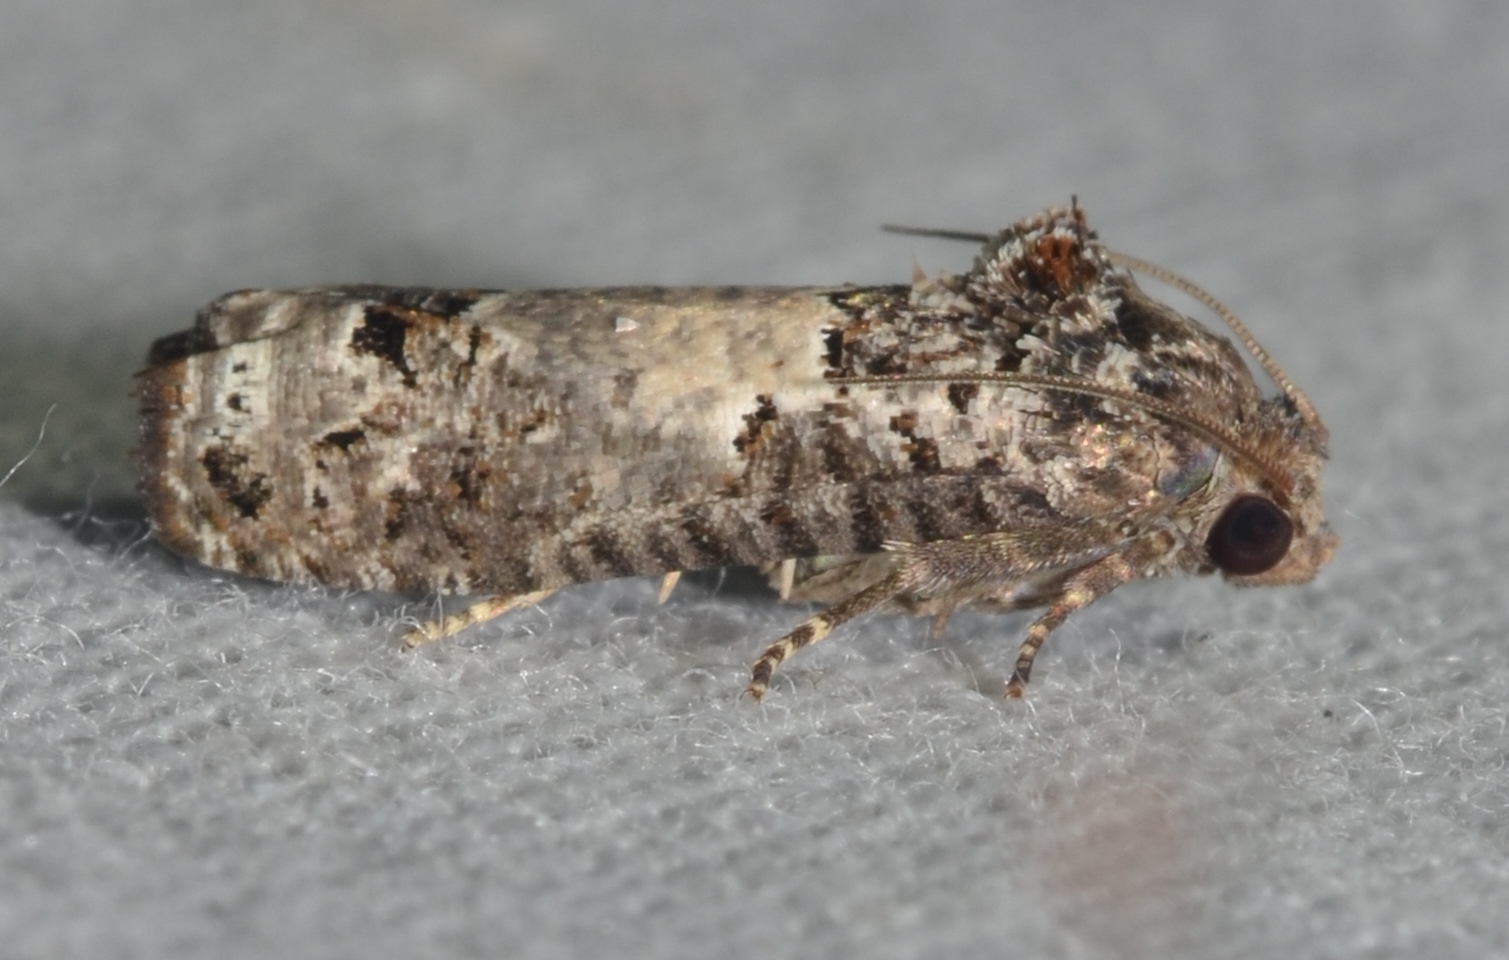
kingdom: Animalia
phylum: Arthropoda
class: Insecta
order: Lepidoptera
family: Tortricidae
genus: Epiblema
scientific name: Epiblema carolinana
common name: Gray-blotched epiblema moth
